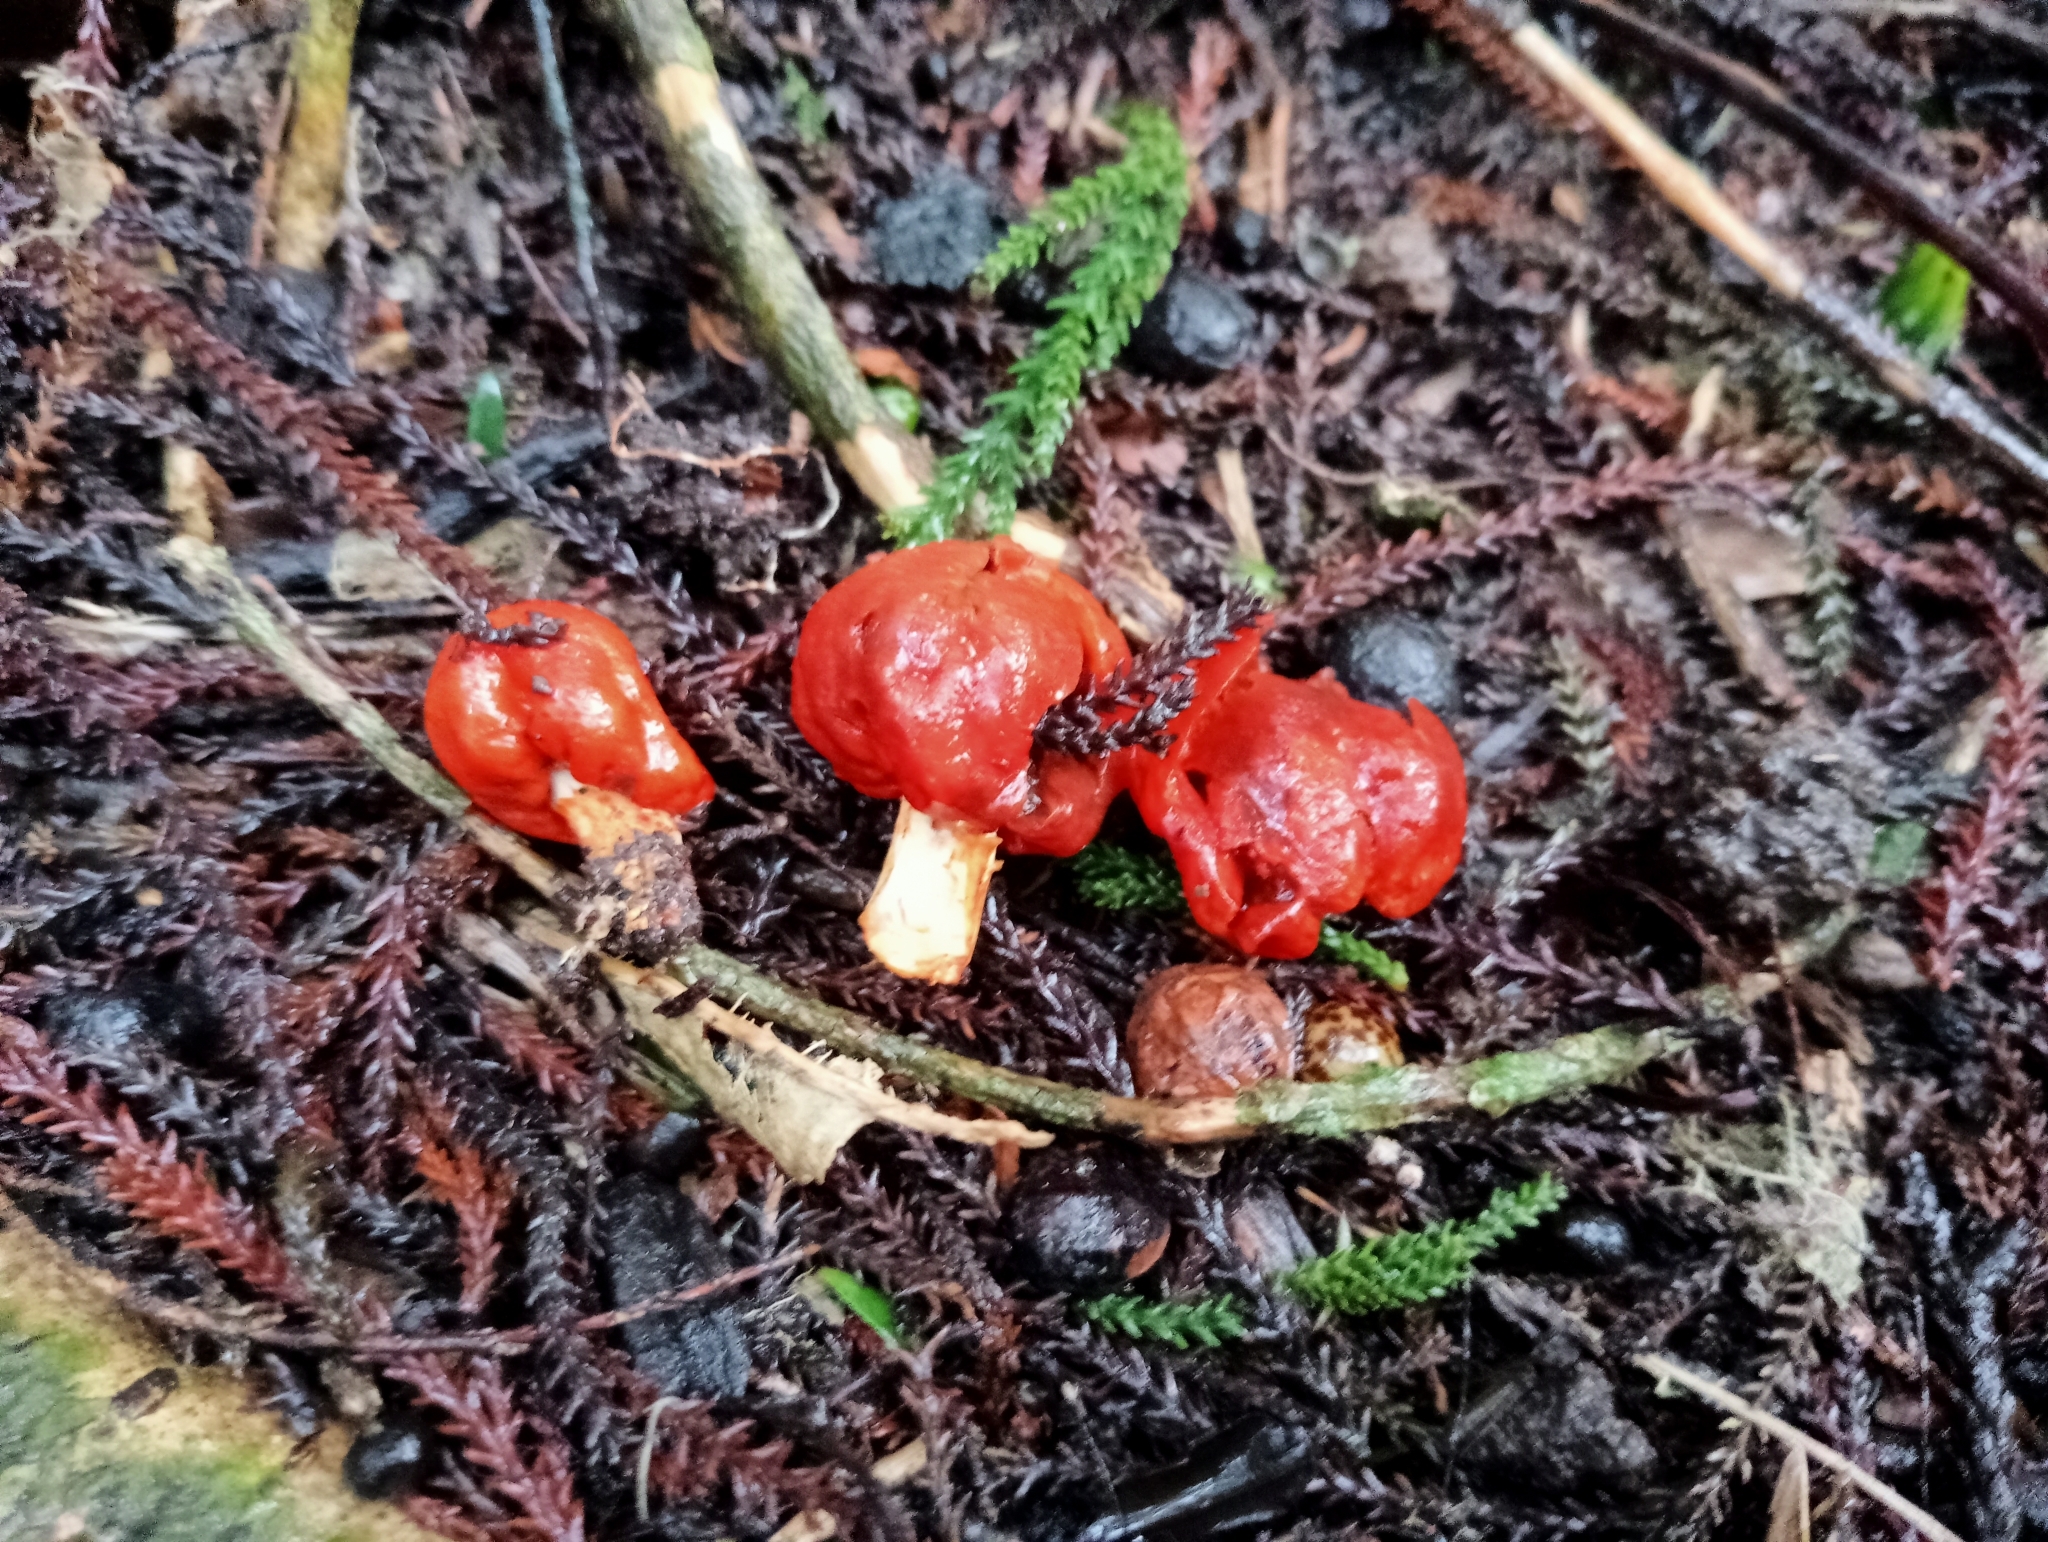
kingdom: Fungi
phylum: Basidiomycota
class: Agaricomycetes
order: Agaricales
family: Strophariaceae
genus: Leratiomyces
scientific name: Leratiomyces erythrocephalus
